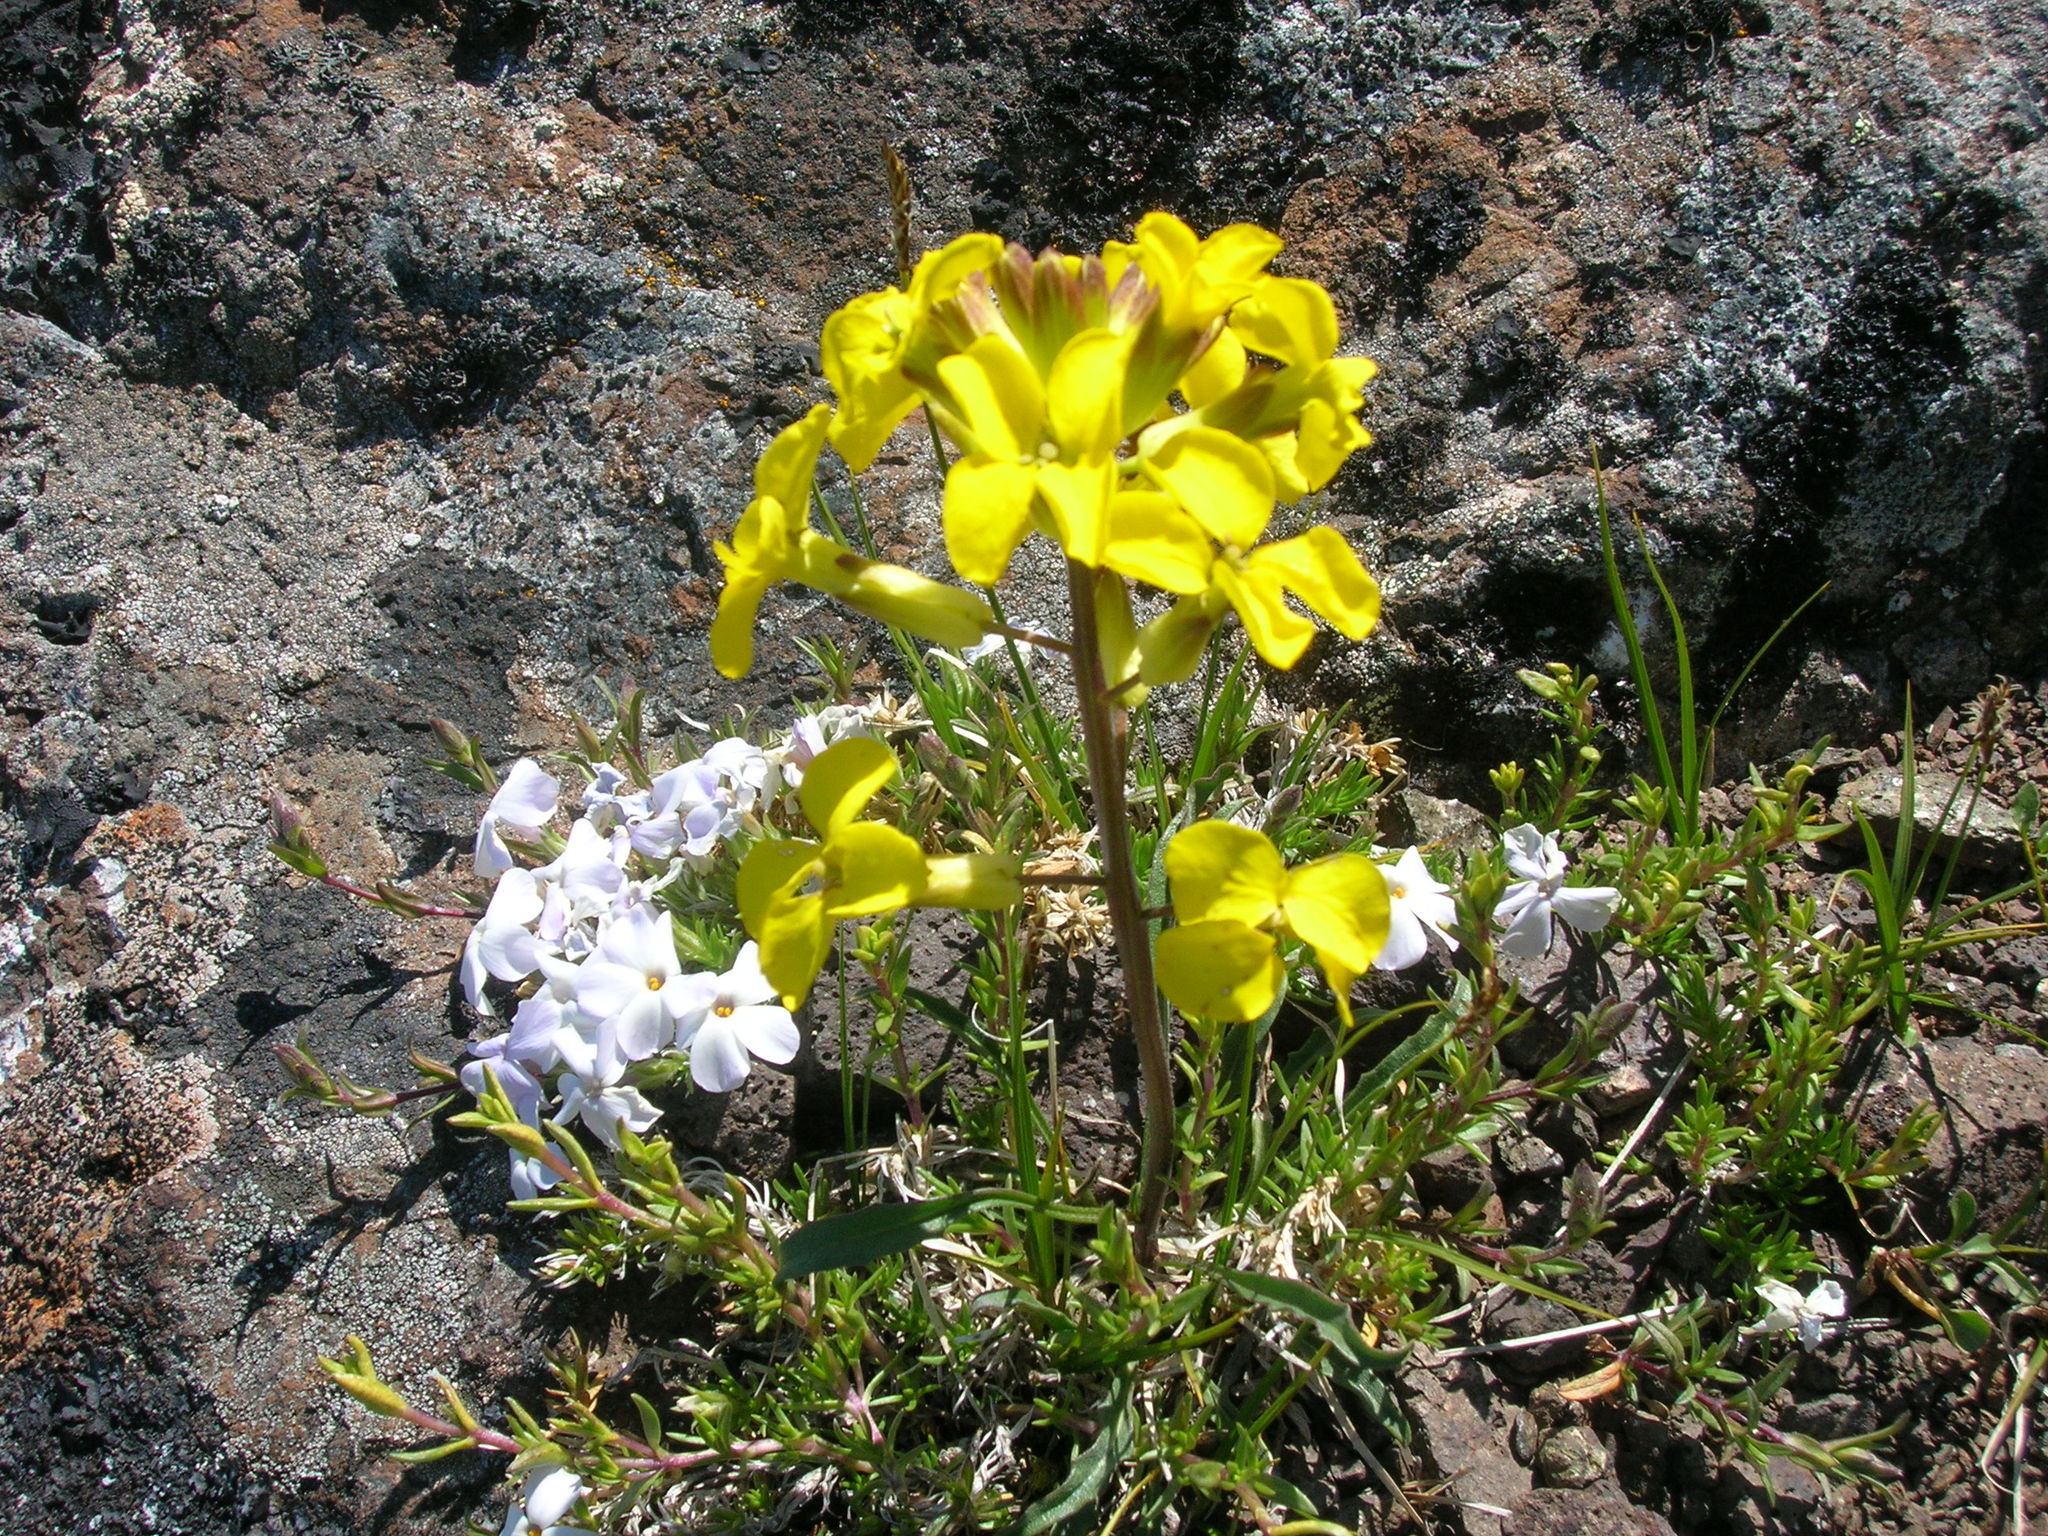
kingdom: Plantae
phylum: Tracheophyta
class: Magnoliopsida
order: Brassicales
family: Brassicaceae
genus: Erysimum
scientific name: Erysimum arenicola
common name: Cascade wallflower
